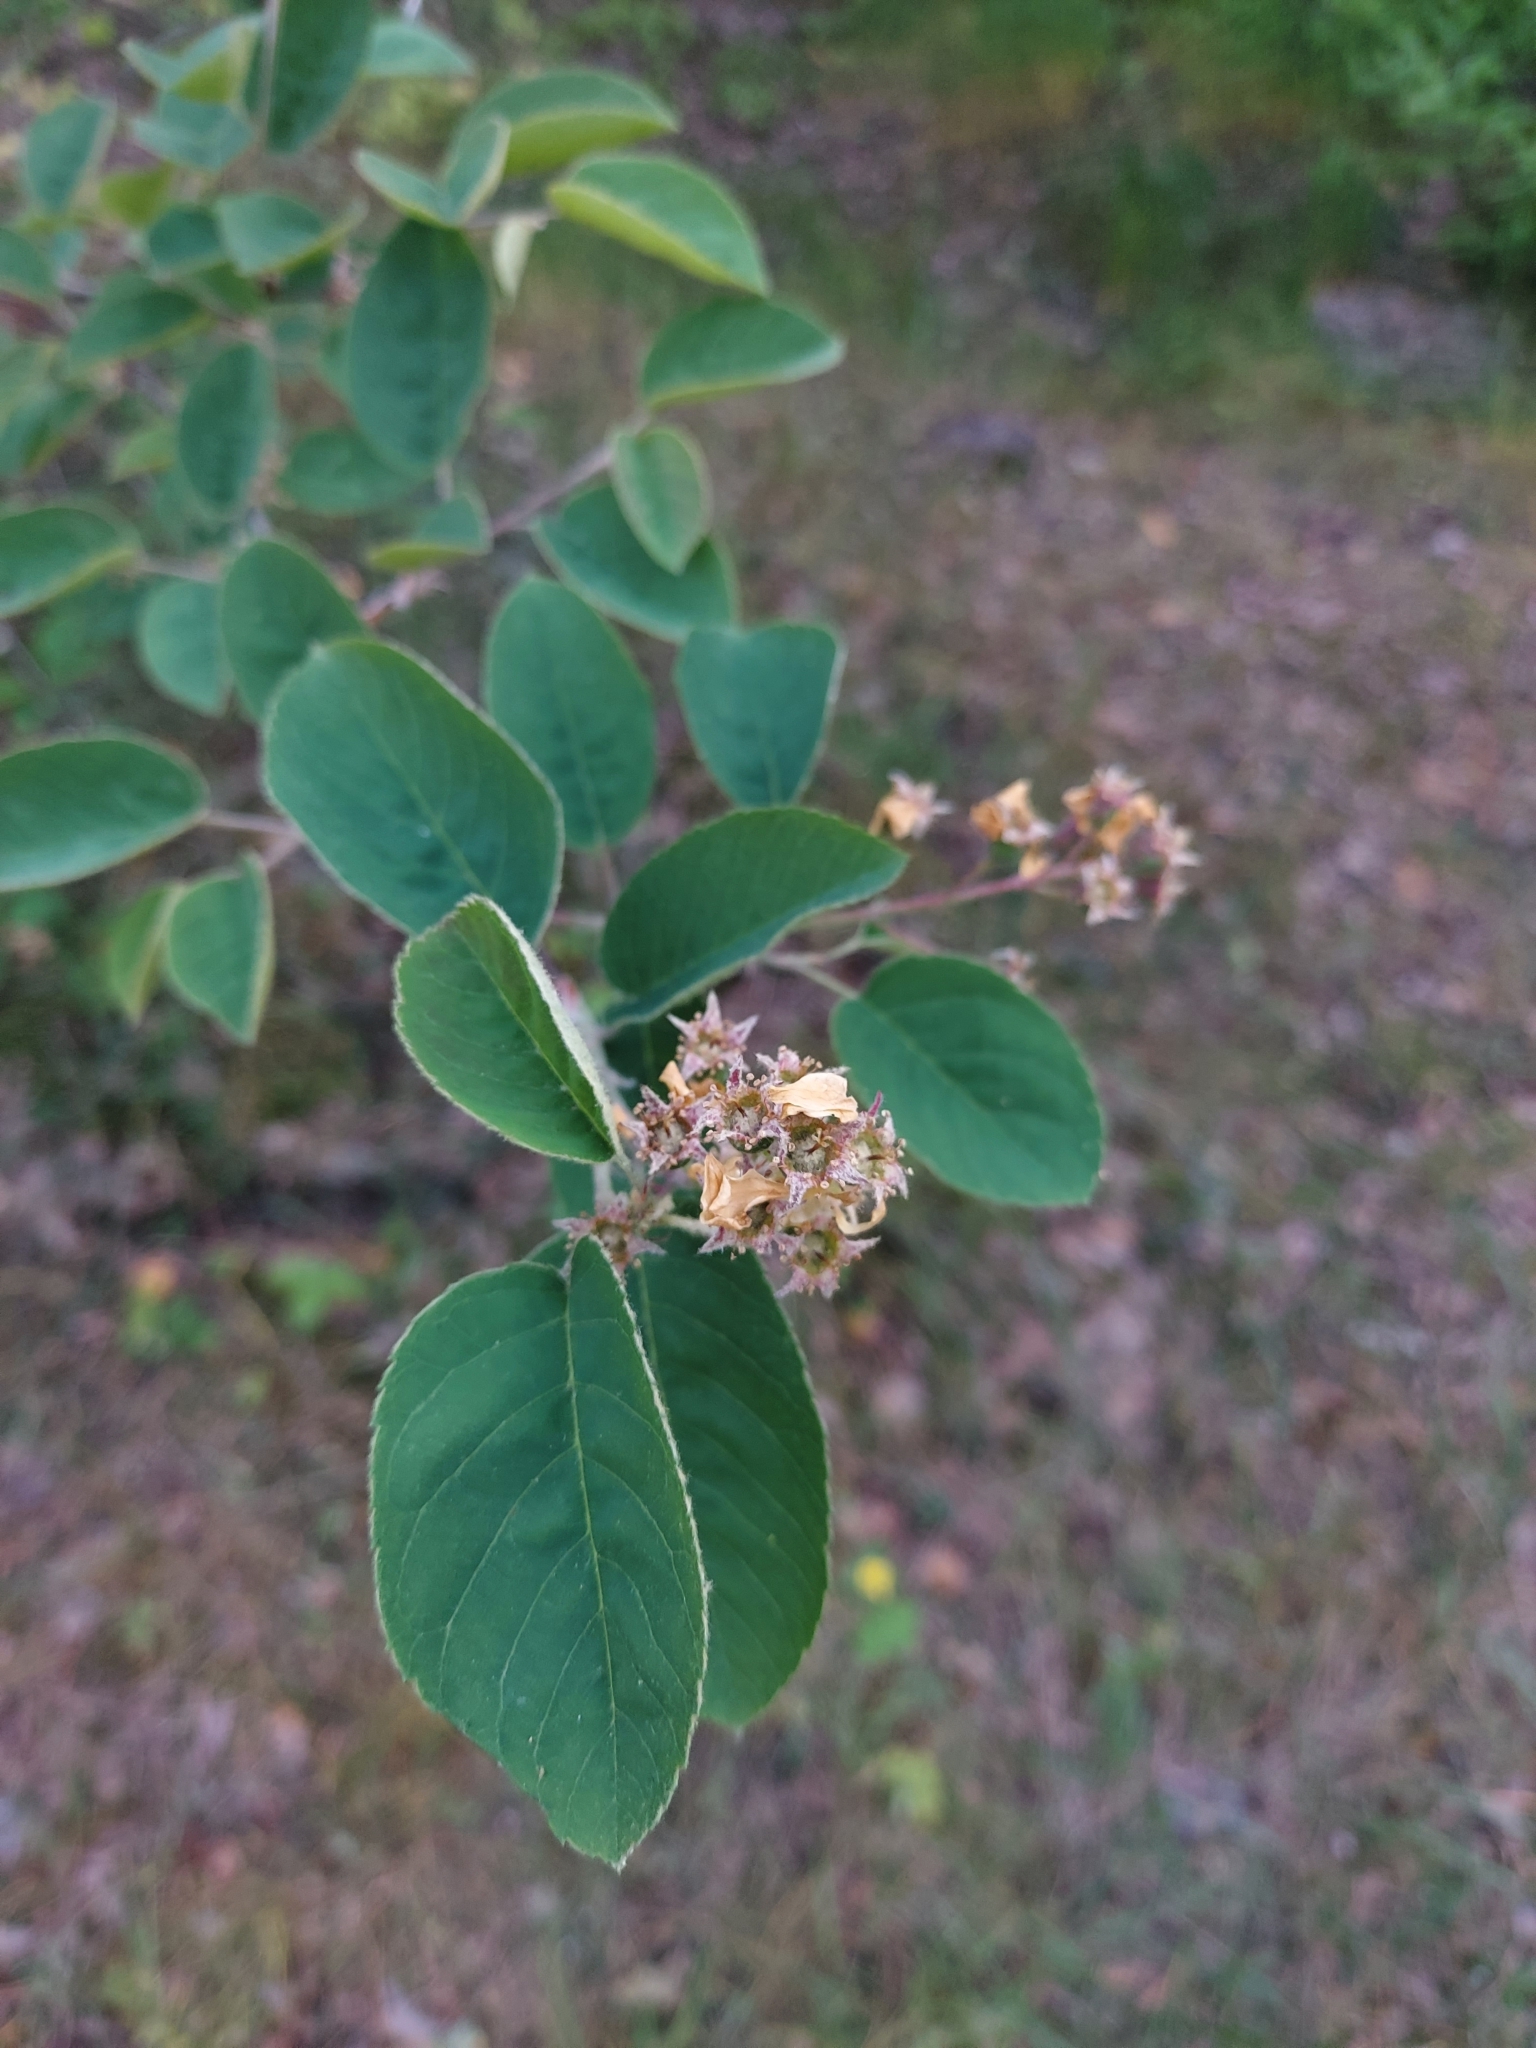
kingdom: Plantae
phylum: Tracheophyta
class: Magnoliopsida
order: Rosales
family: Rosaceae
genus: Amelanchier
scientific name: Amelanchier
